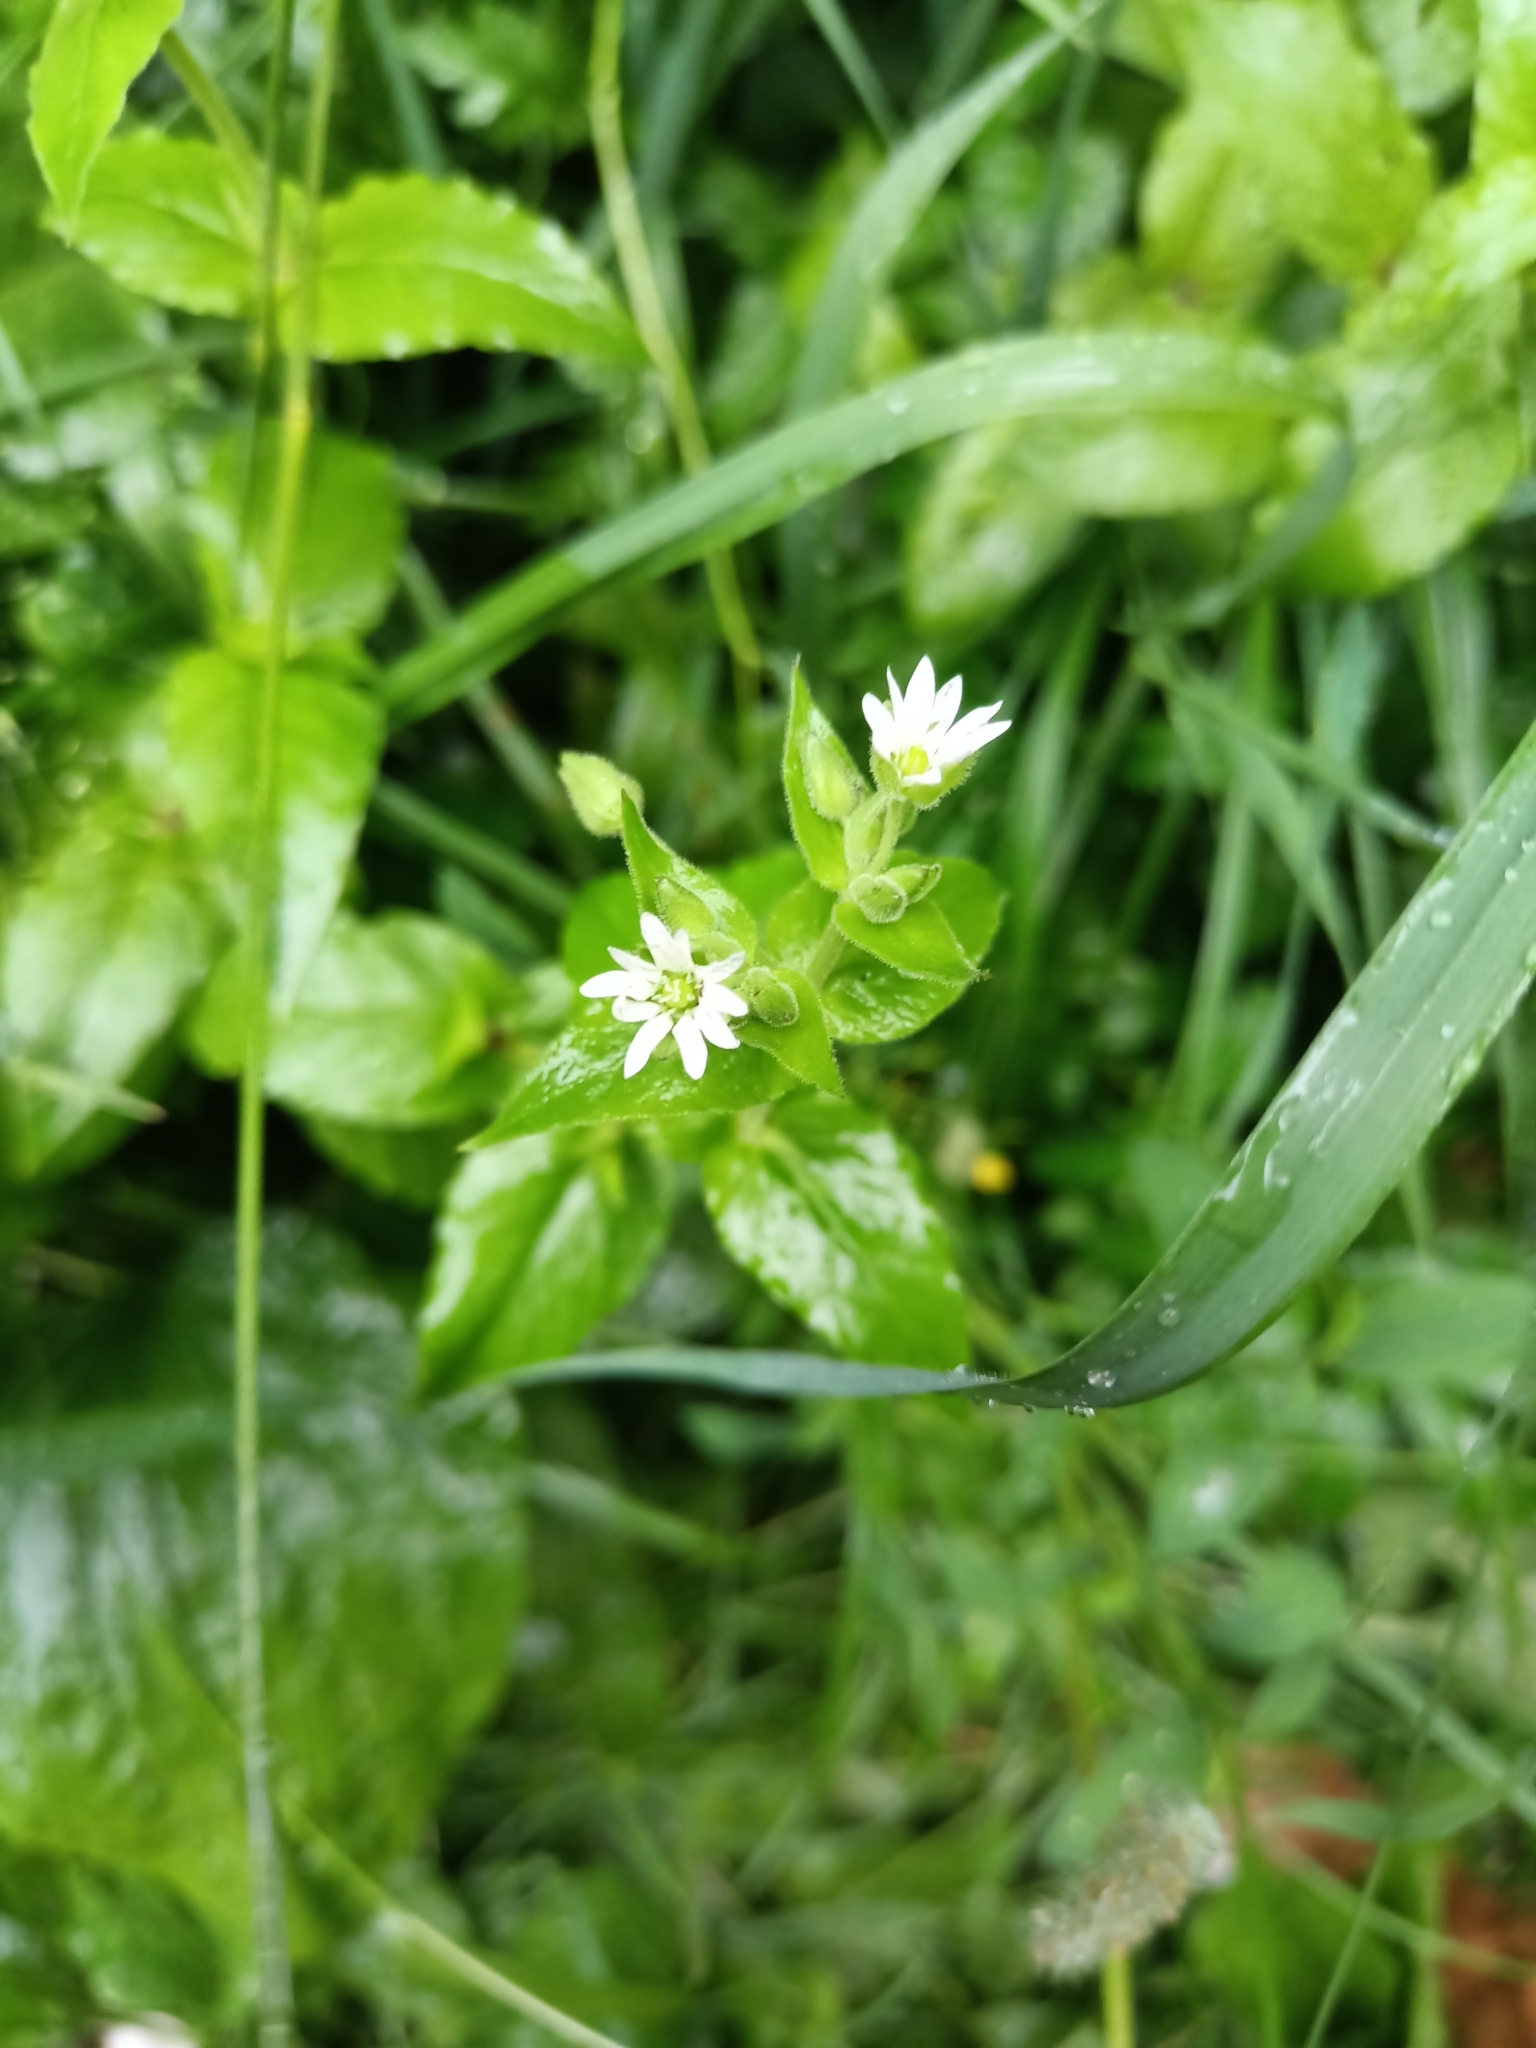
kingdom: Plantae
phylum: Tracheophyta
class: Magnoliopsida
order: Caryophyllales
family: Caryophyllaceae
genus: Stellaria
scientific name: Stellaria aquatica
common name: Water chickweed
